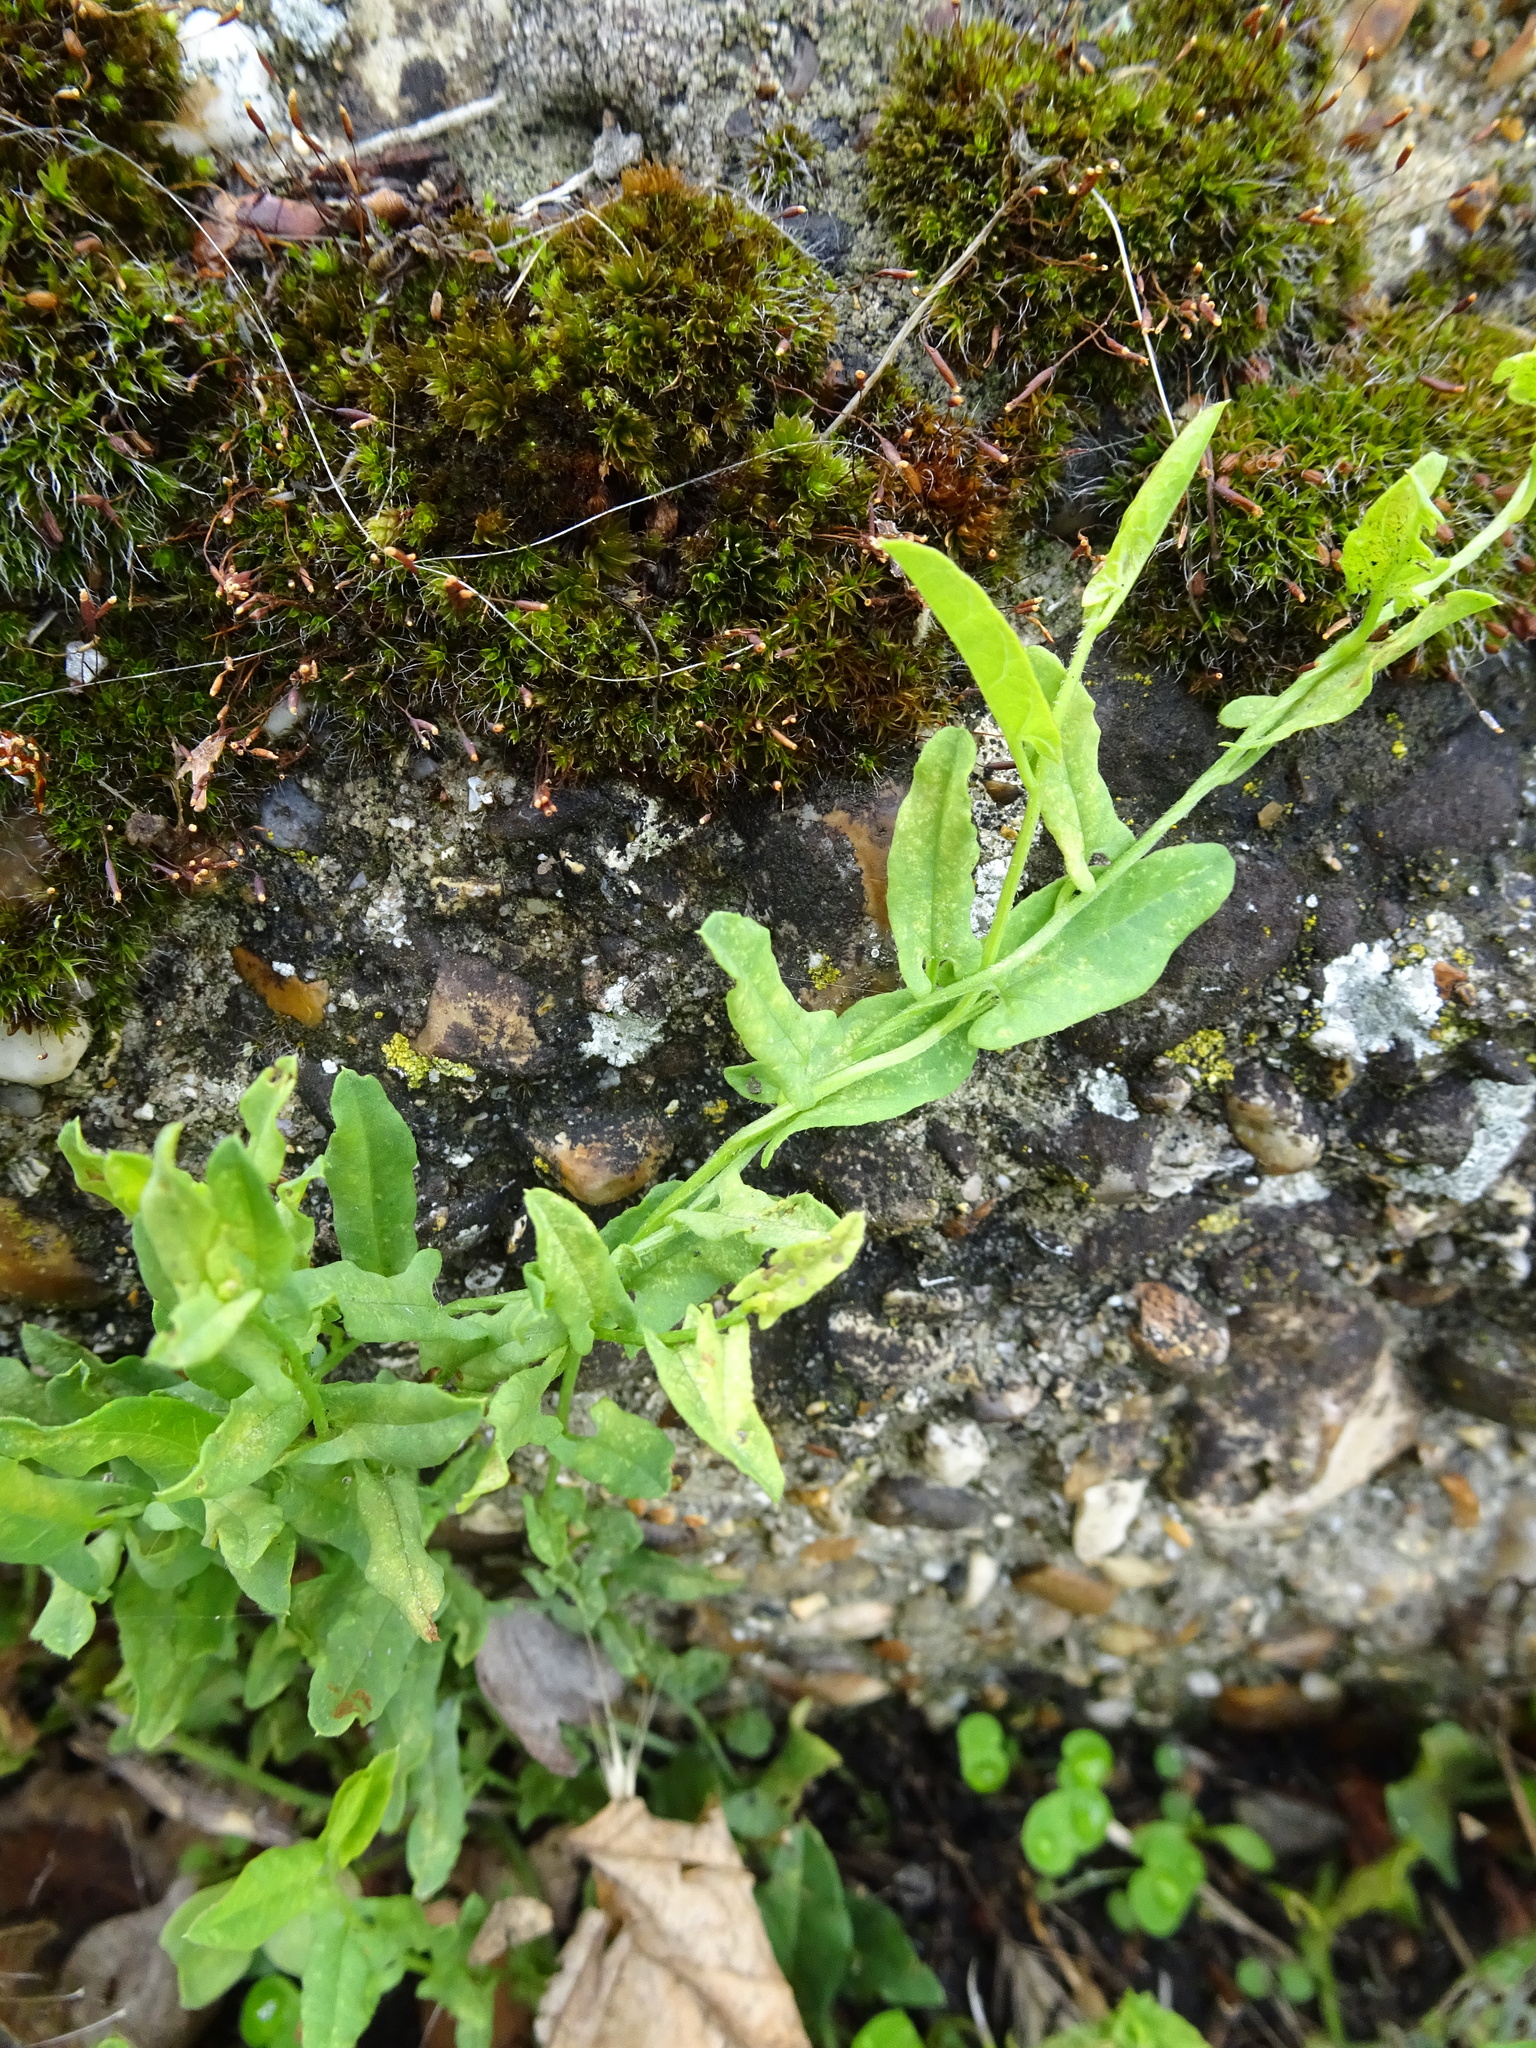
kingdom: Plantae
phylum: Tracheophyta
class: Magnoliopsida
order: Solanales
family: Convolvulaceae
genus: Convolvulus
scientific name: Convolvulus arvensis
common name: Field bindweed
